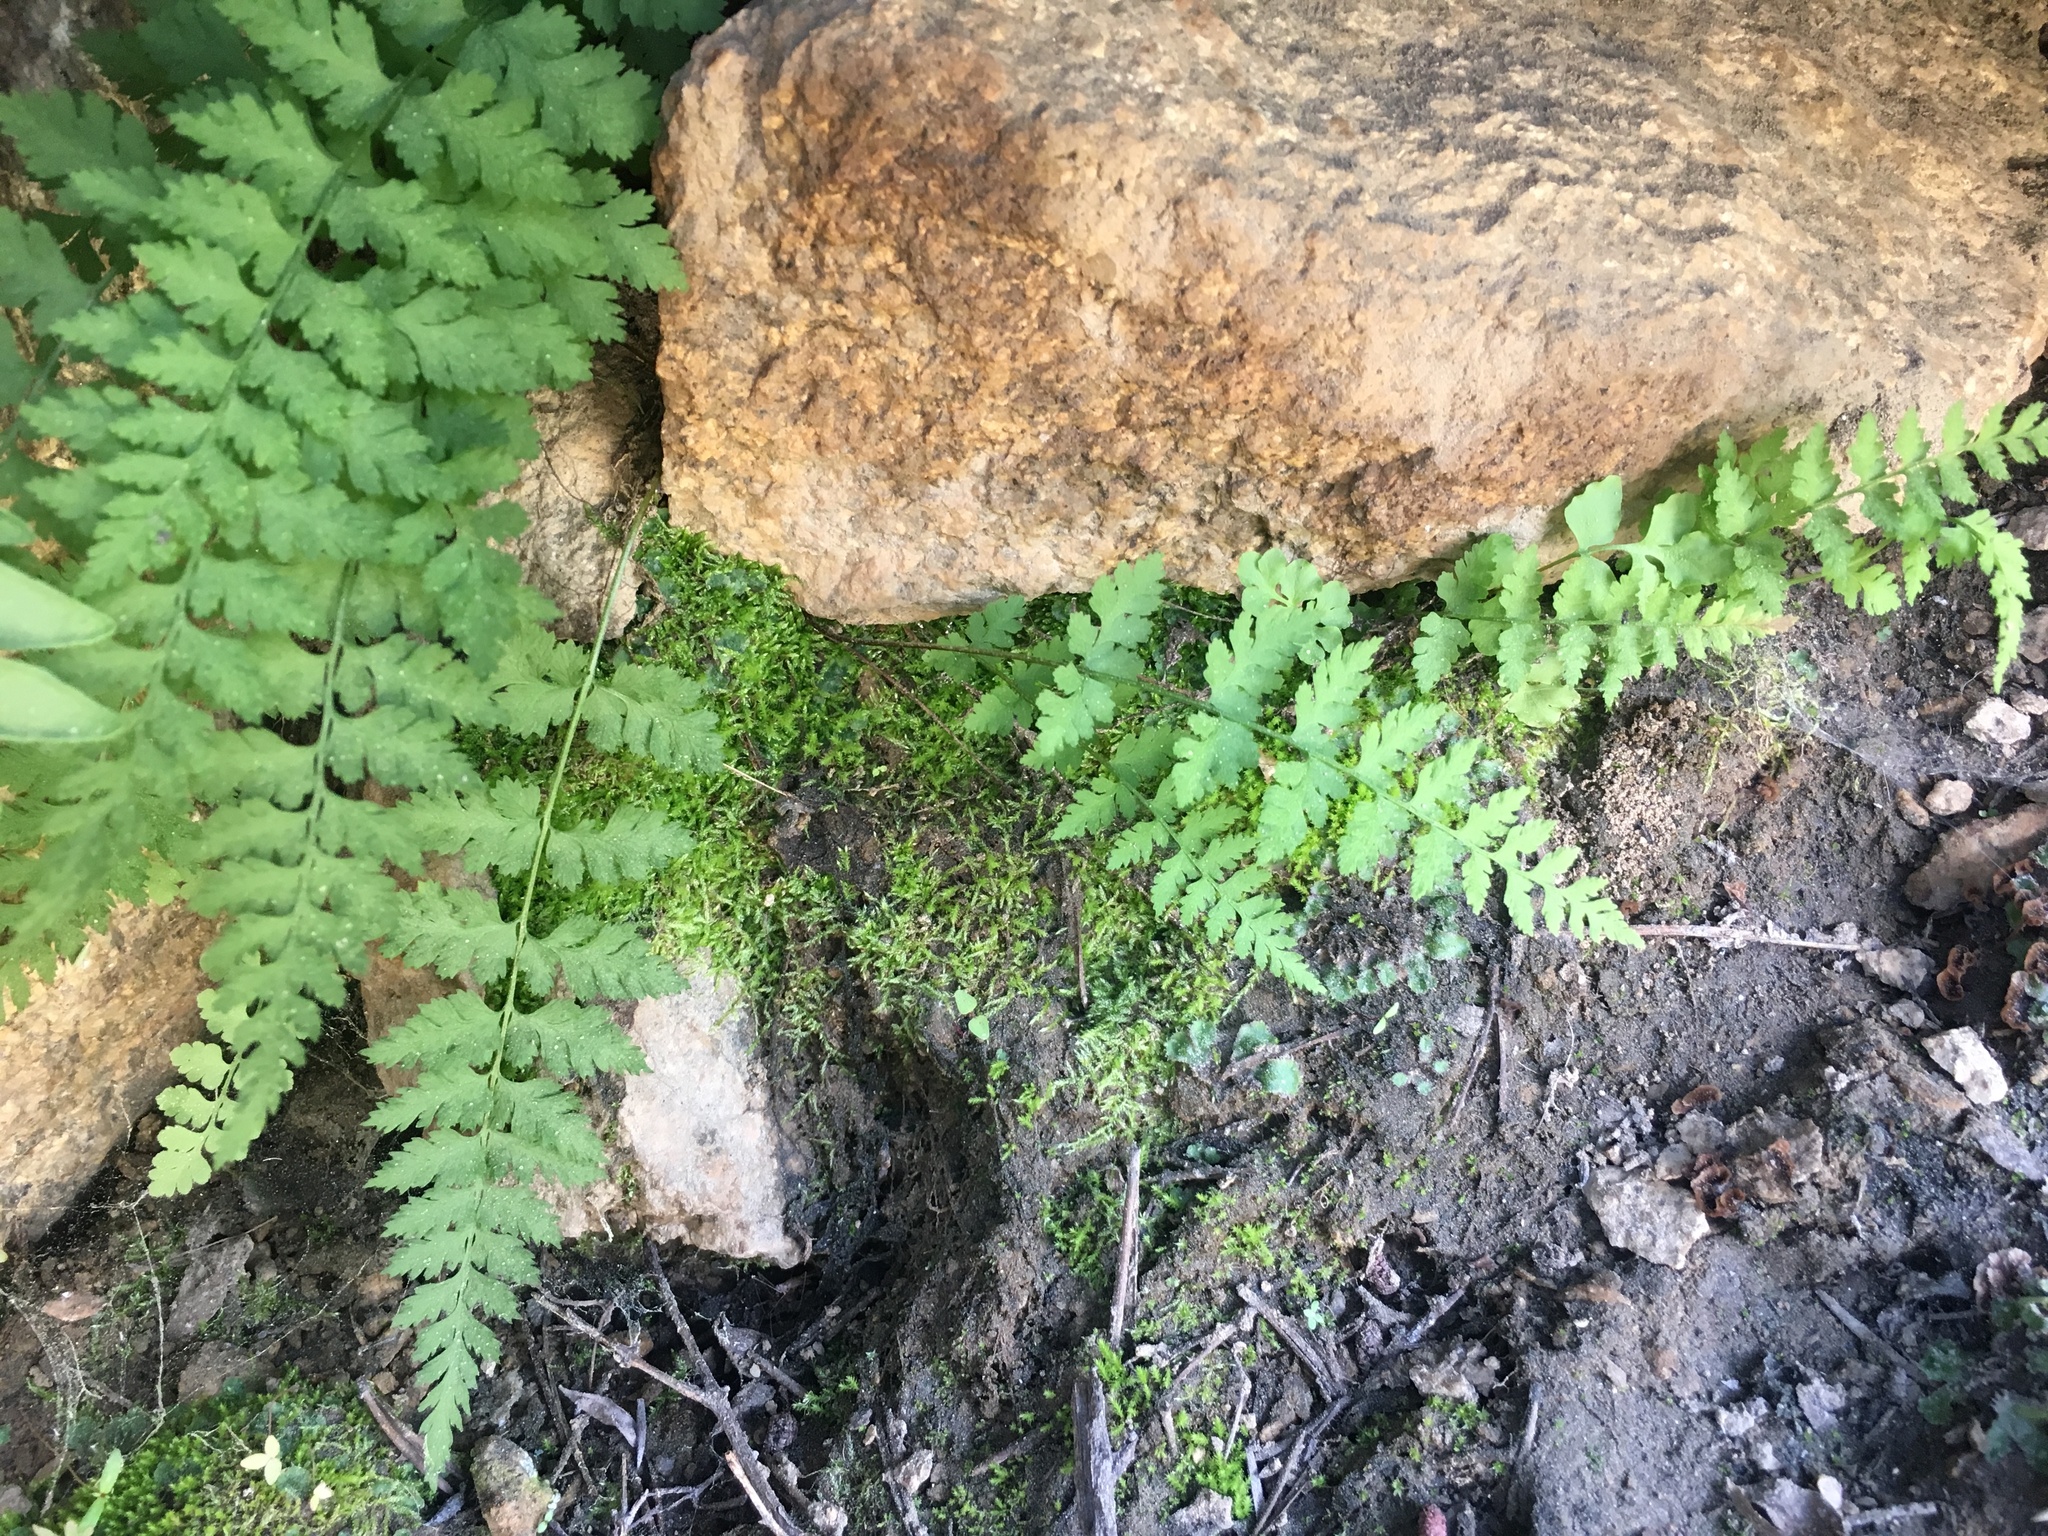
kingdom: Plantae
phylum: Tracheophyta
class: Polypodiopsida
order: Polypodiales
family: Cystopteridaceae
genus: Cystopteris
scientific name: Cystopteris fragilis
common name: Brittle bladder fern
